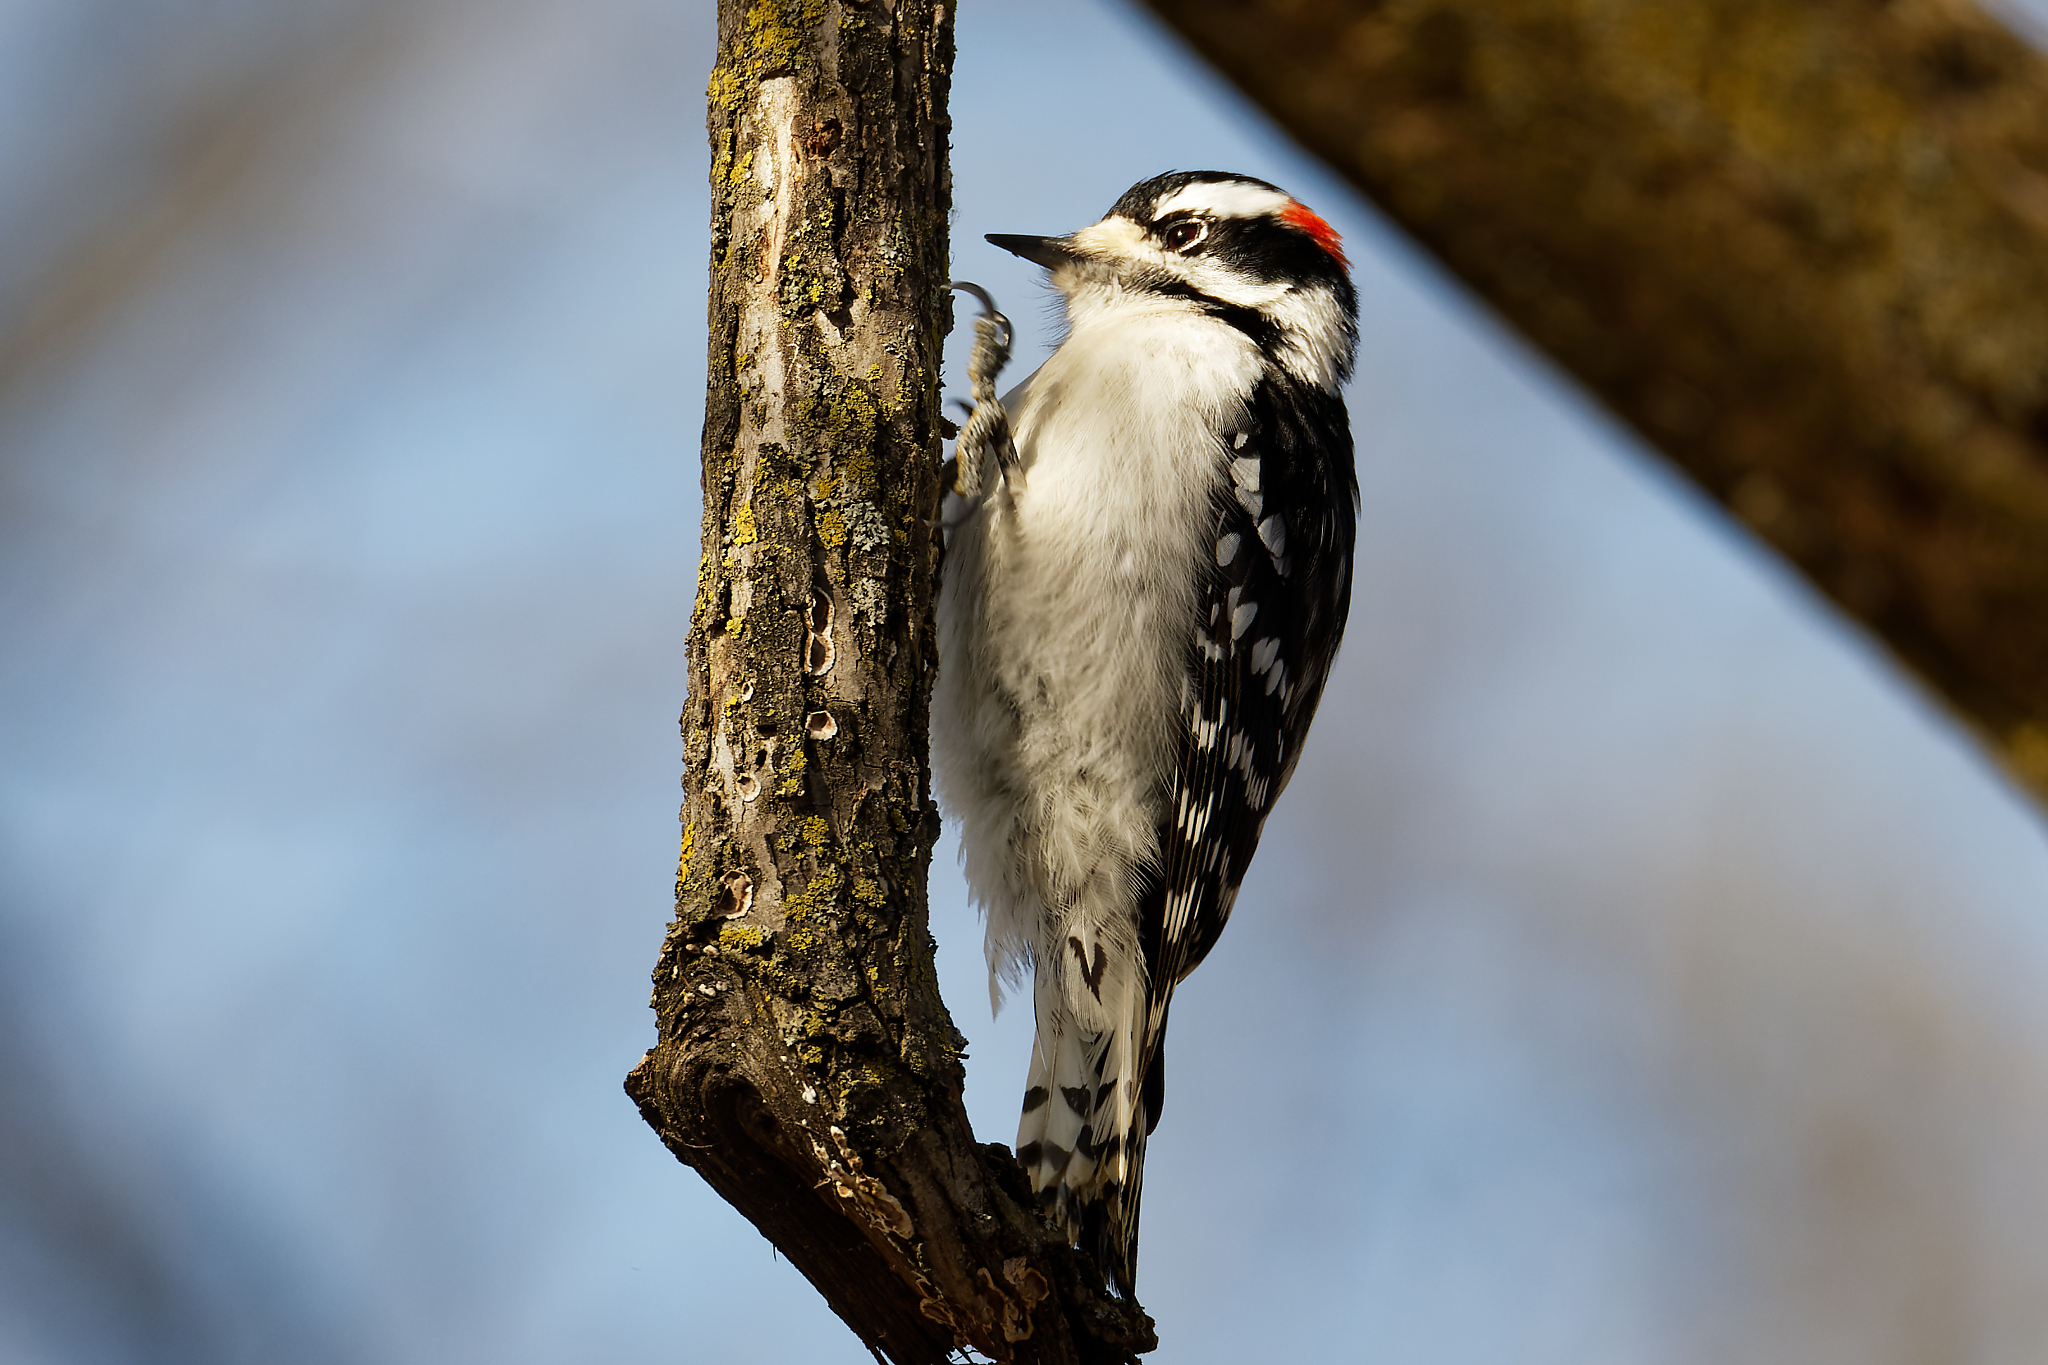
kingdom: Animalia
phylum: Chordata
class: Aves
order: Piciformes
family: Picidae
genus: Dryobates
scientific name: Dryobates pubescens
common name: Downy woodpecker
